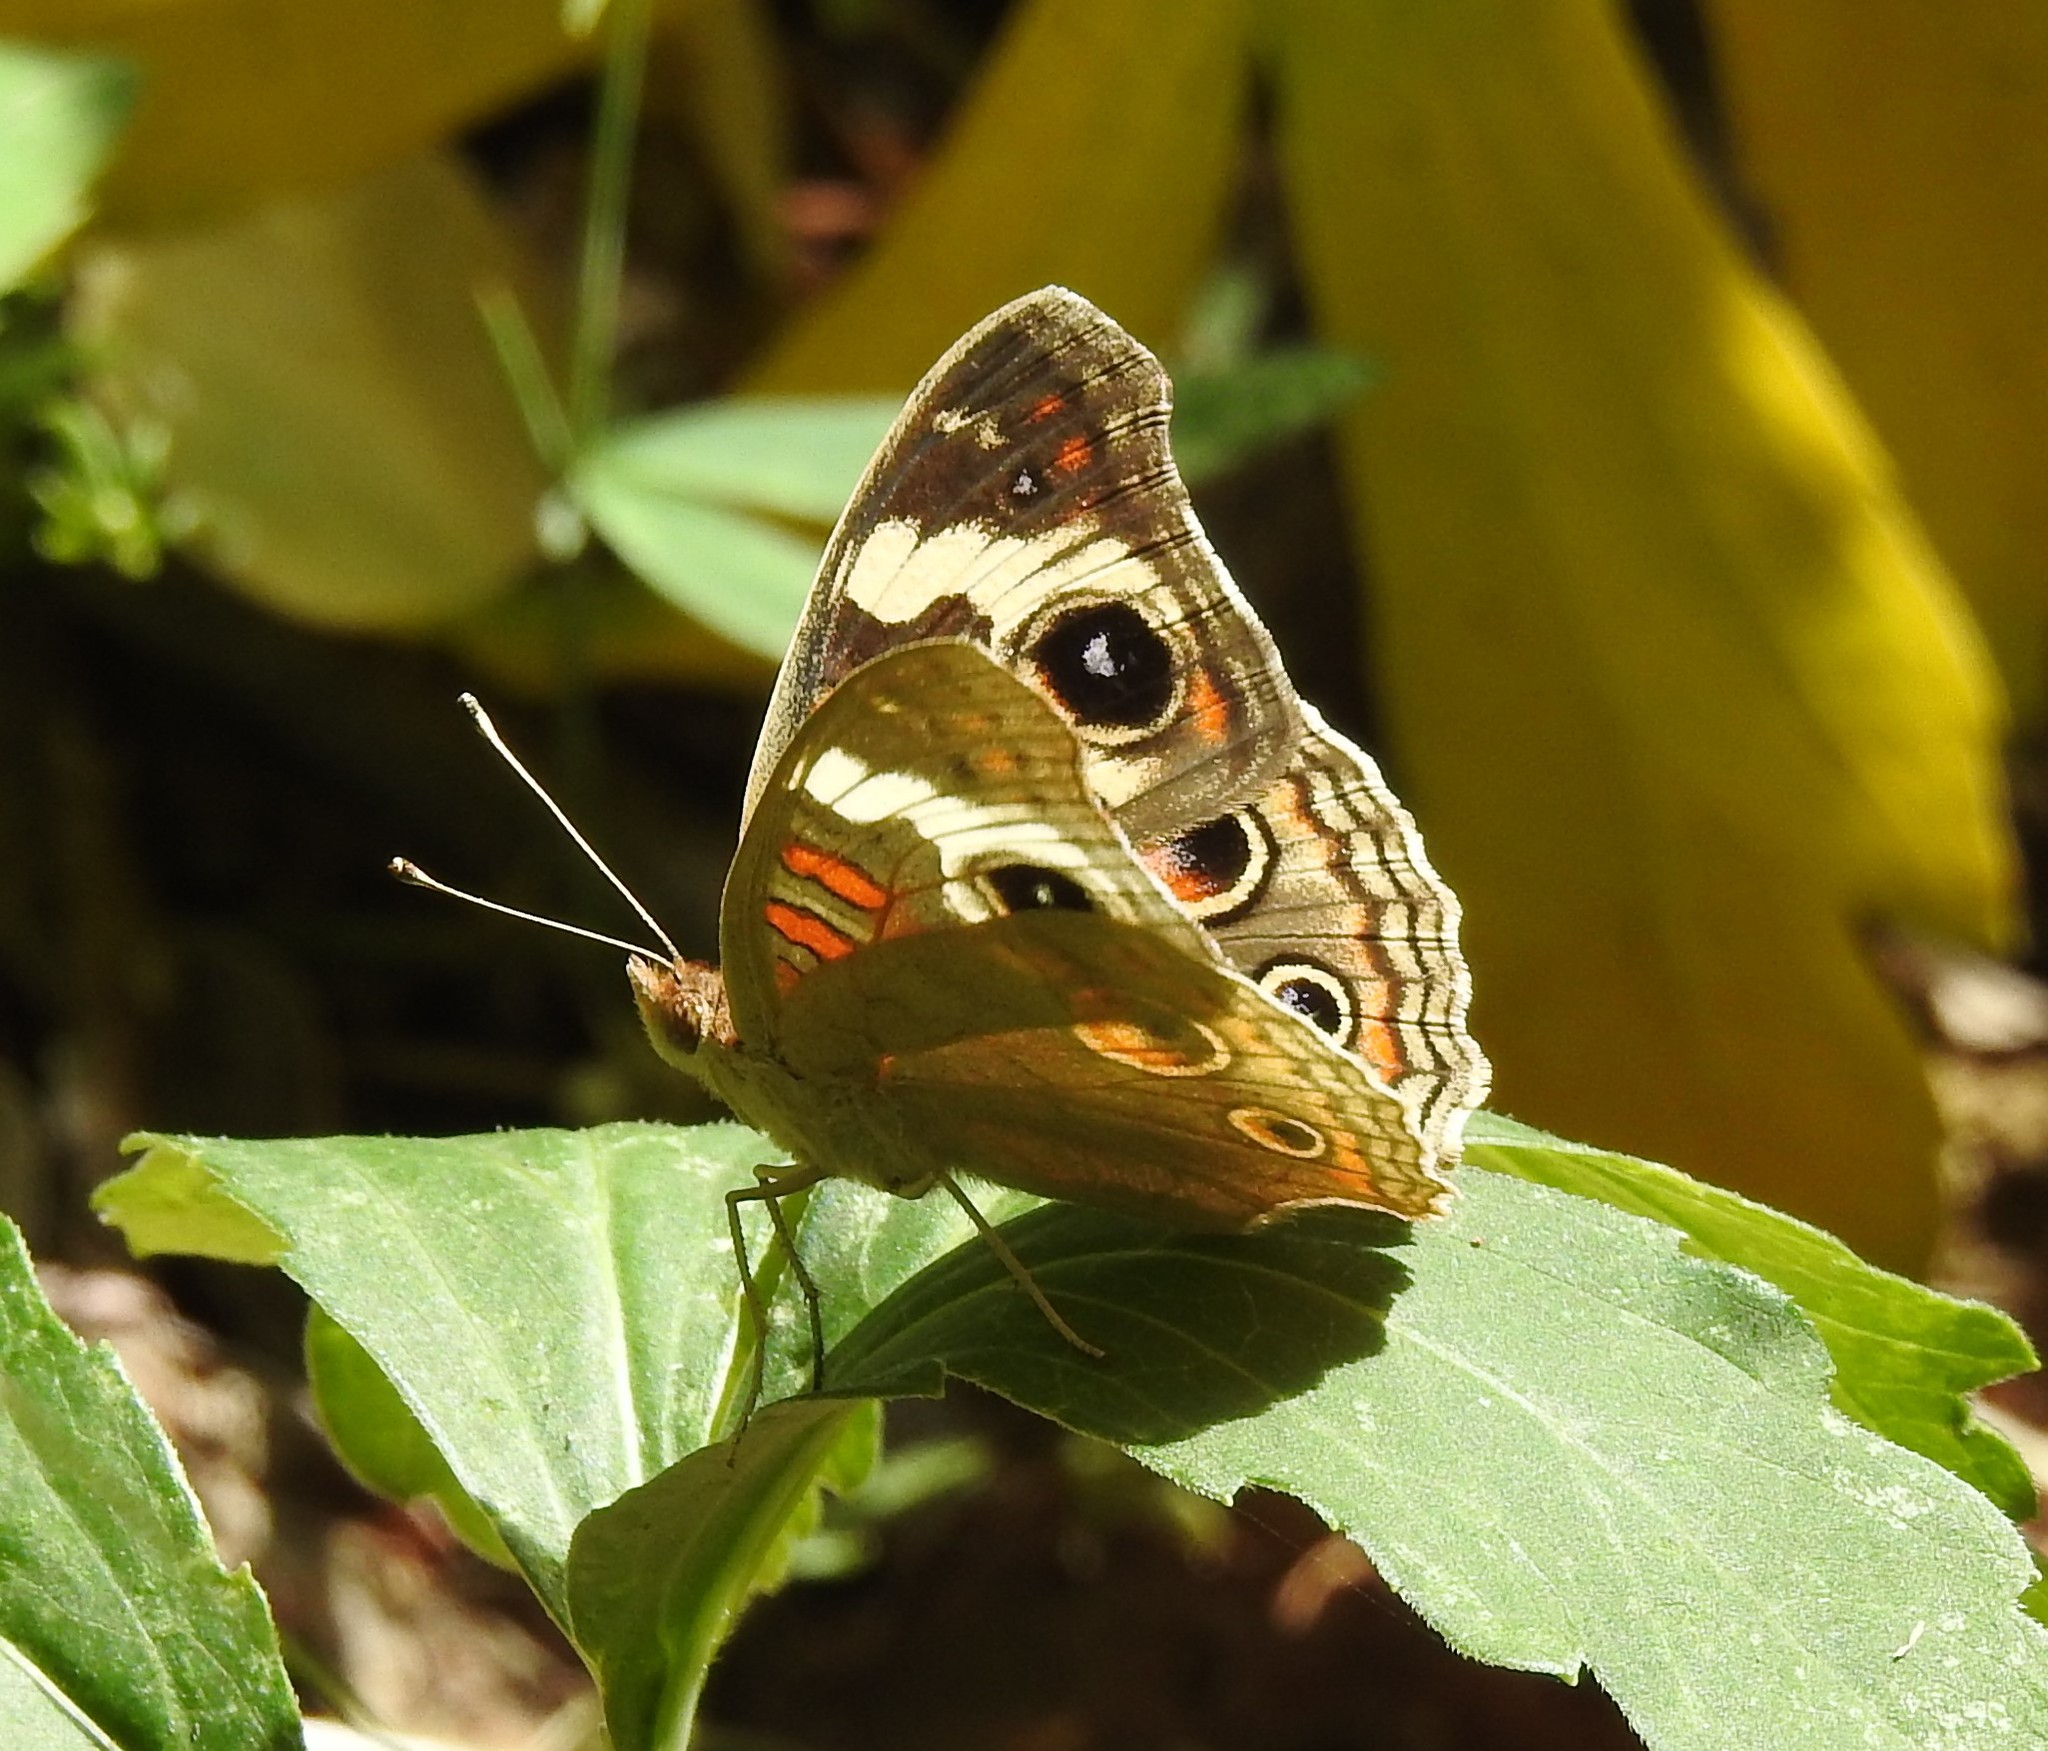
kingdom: Animalia
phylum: Arthropoda
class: Insecta
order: Lepidoptera
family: Nymphalidae
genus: Junonia
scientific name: Junonia grisea
